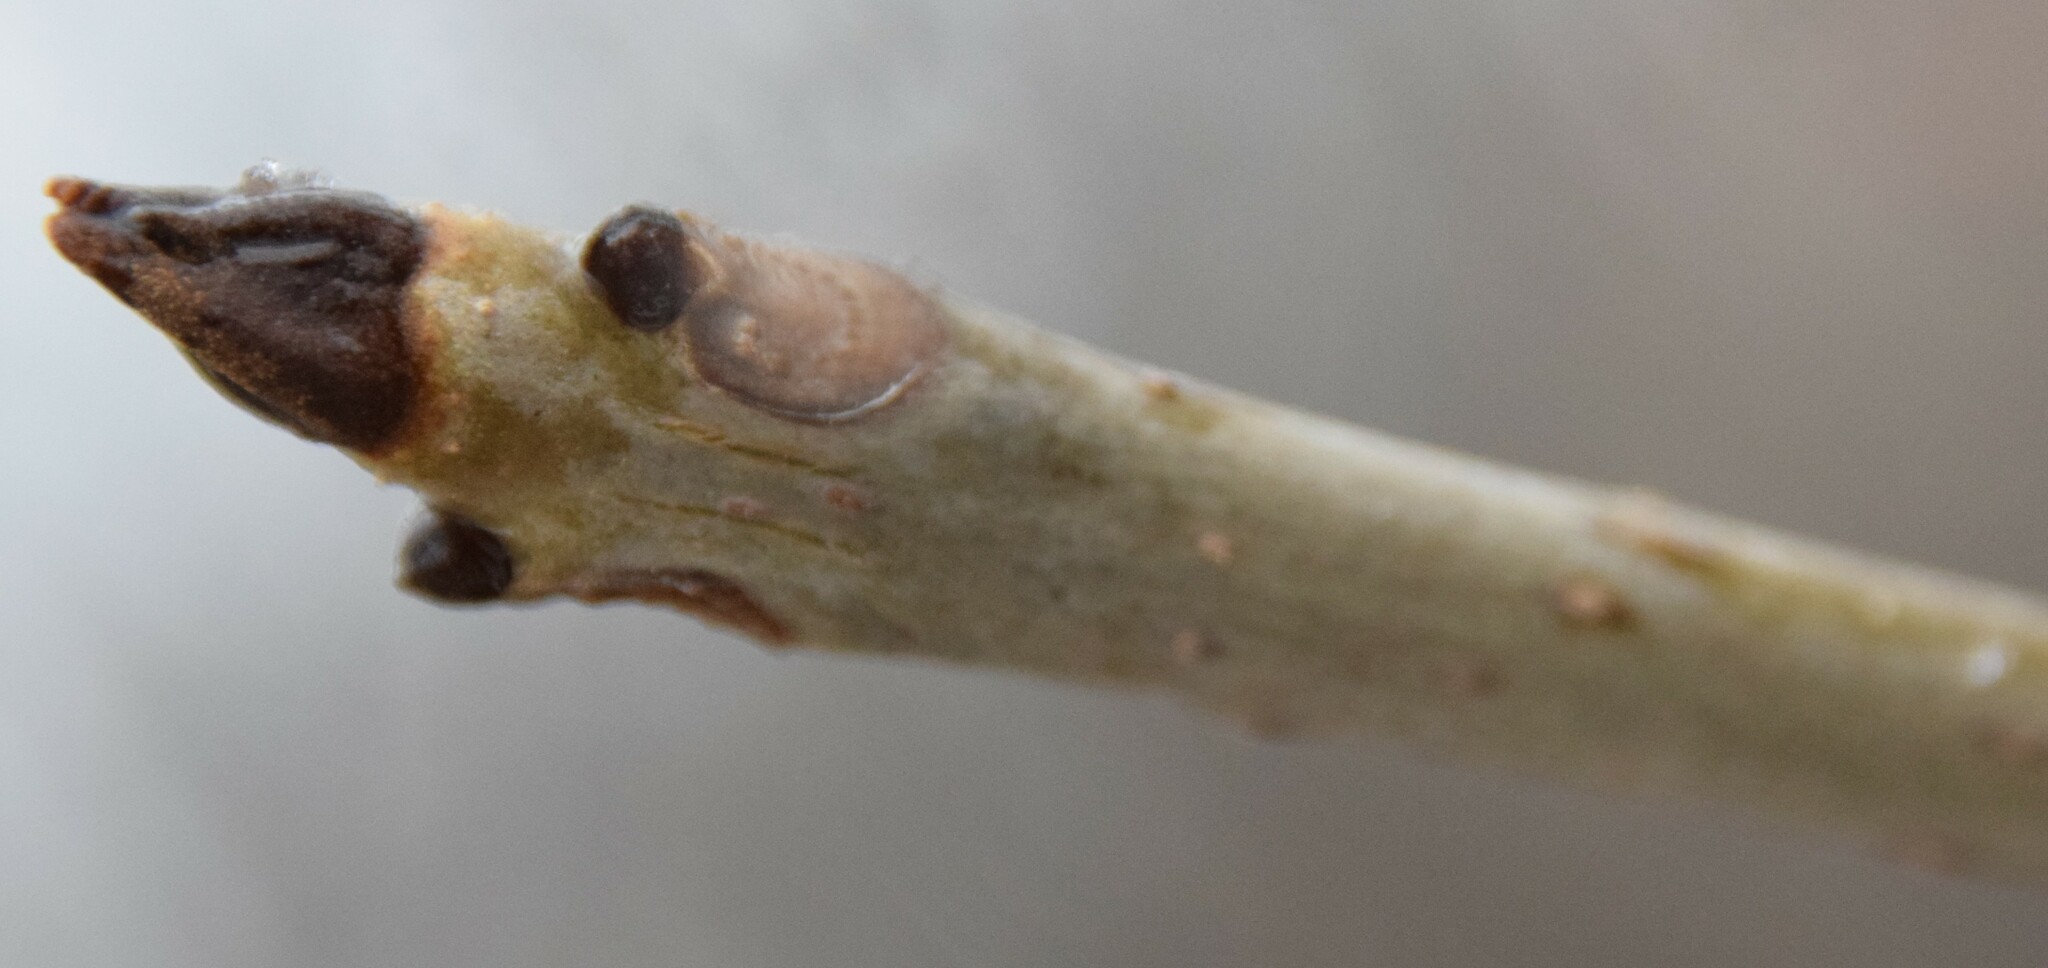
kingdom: Plantae
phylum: Tracheophyta
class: Magnoliopsida
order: Lamiales
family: Oleaceae
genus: Fraxinus
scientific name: Fraxinus nigra
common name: Black ash
